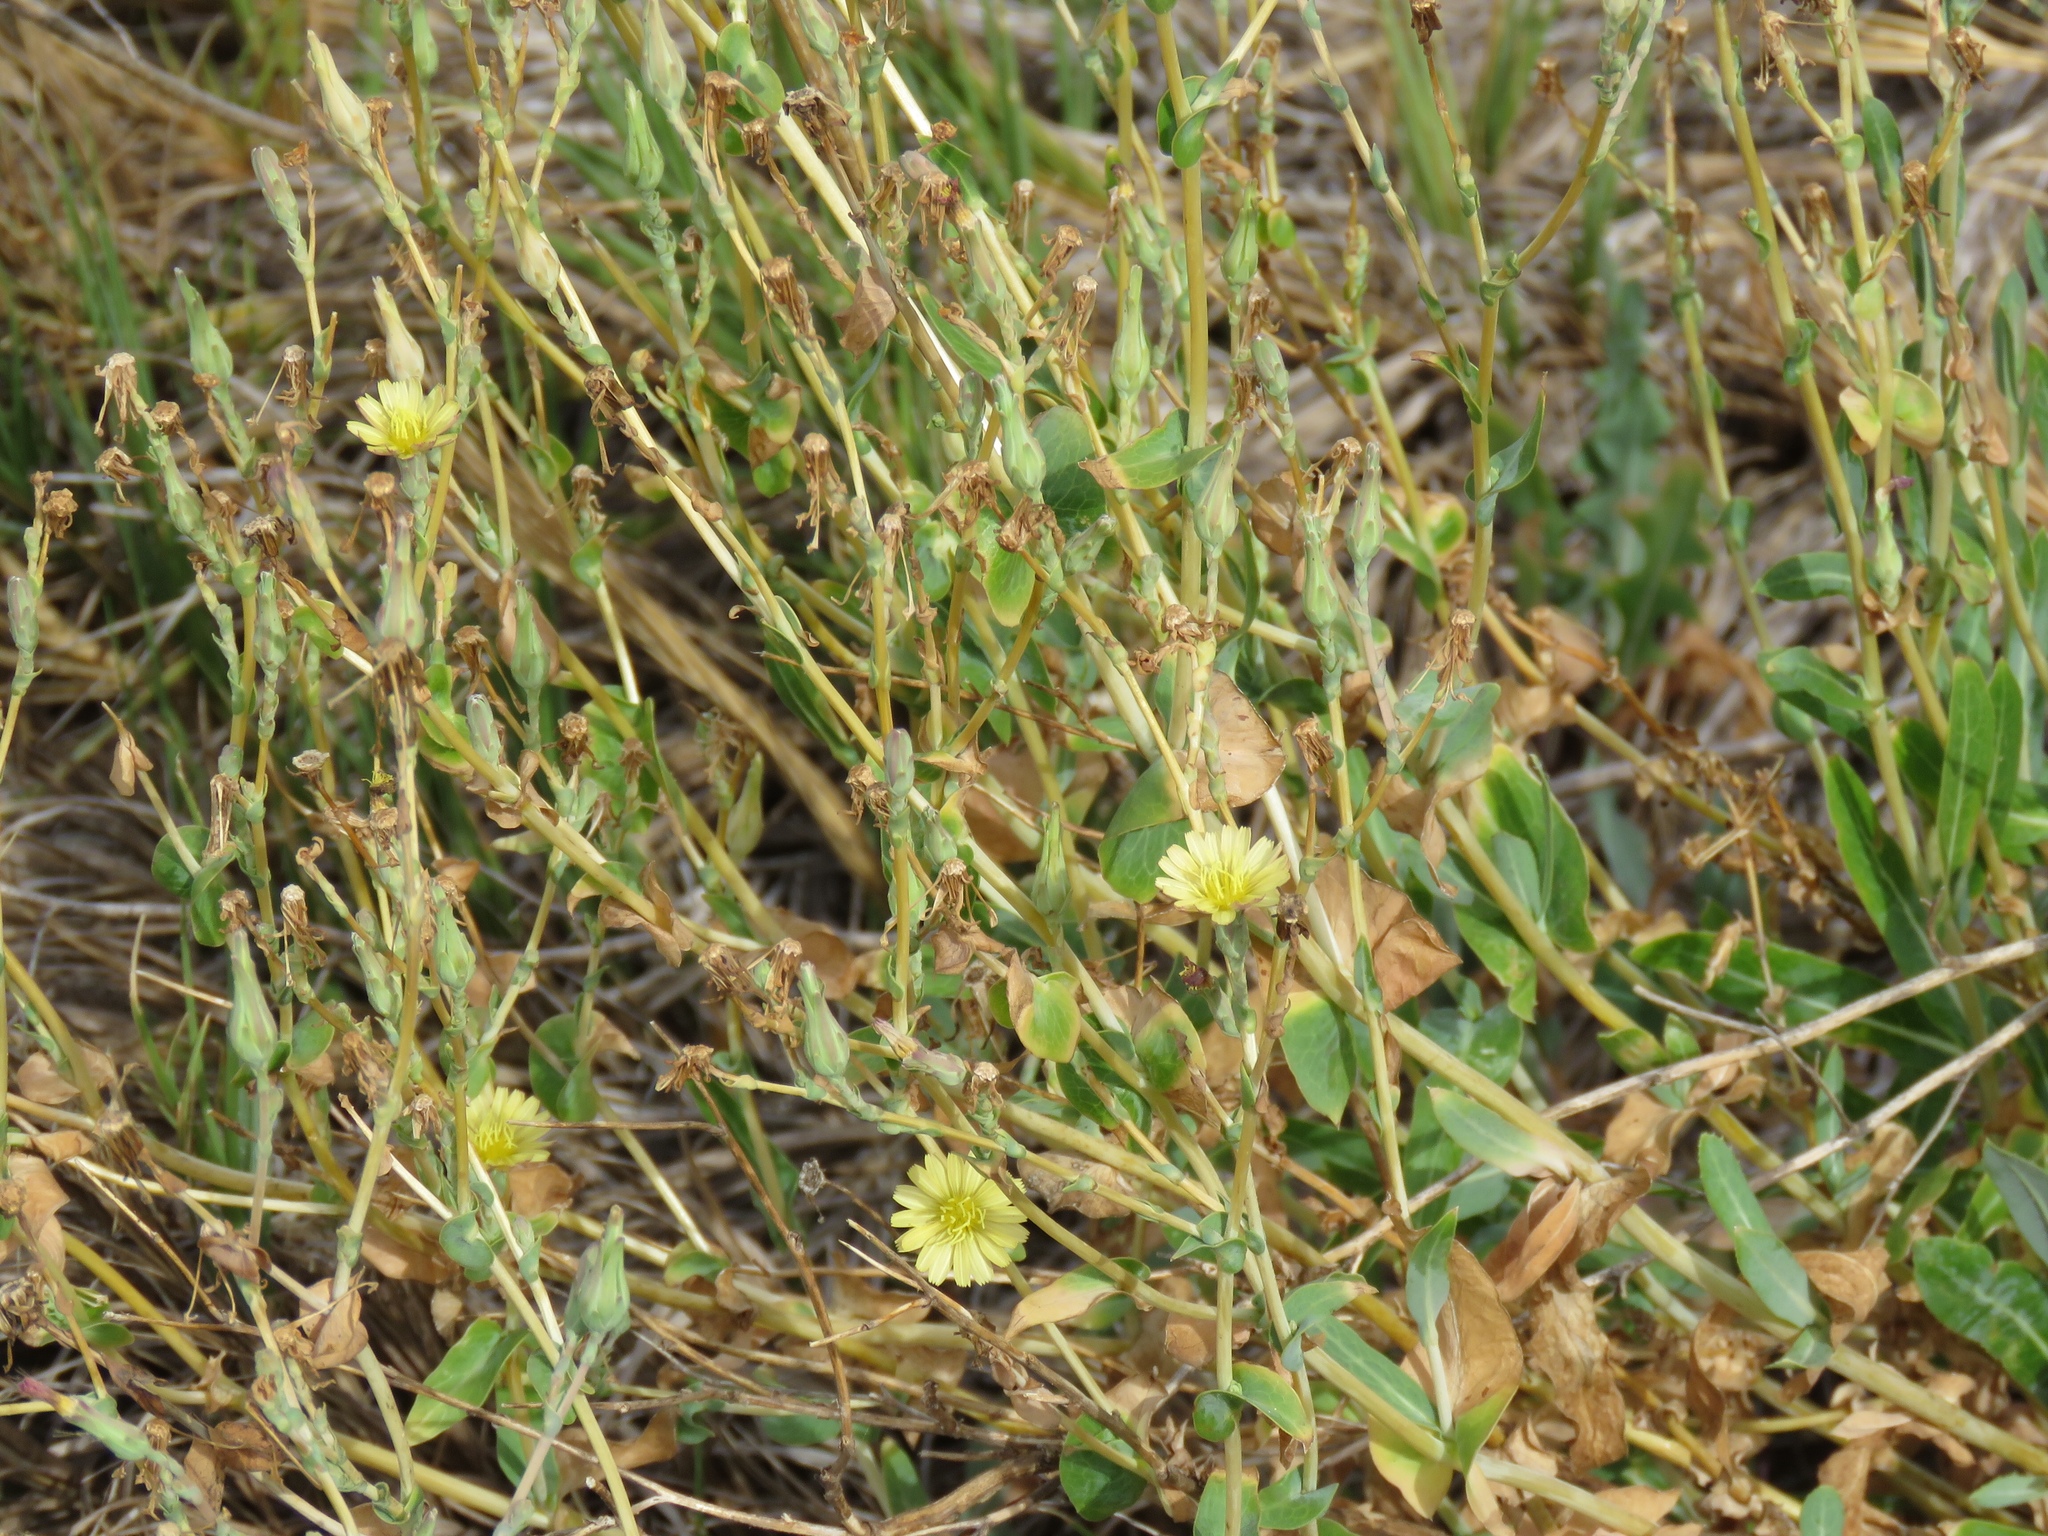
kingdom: Plantae
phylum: Tracheophyta
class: Magnoliopsida
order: Asterales
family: Asteraceae
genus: Lactuca
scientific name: Lactuca serriola
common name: Prickly lettuce
